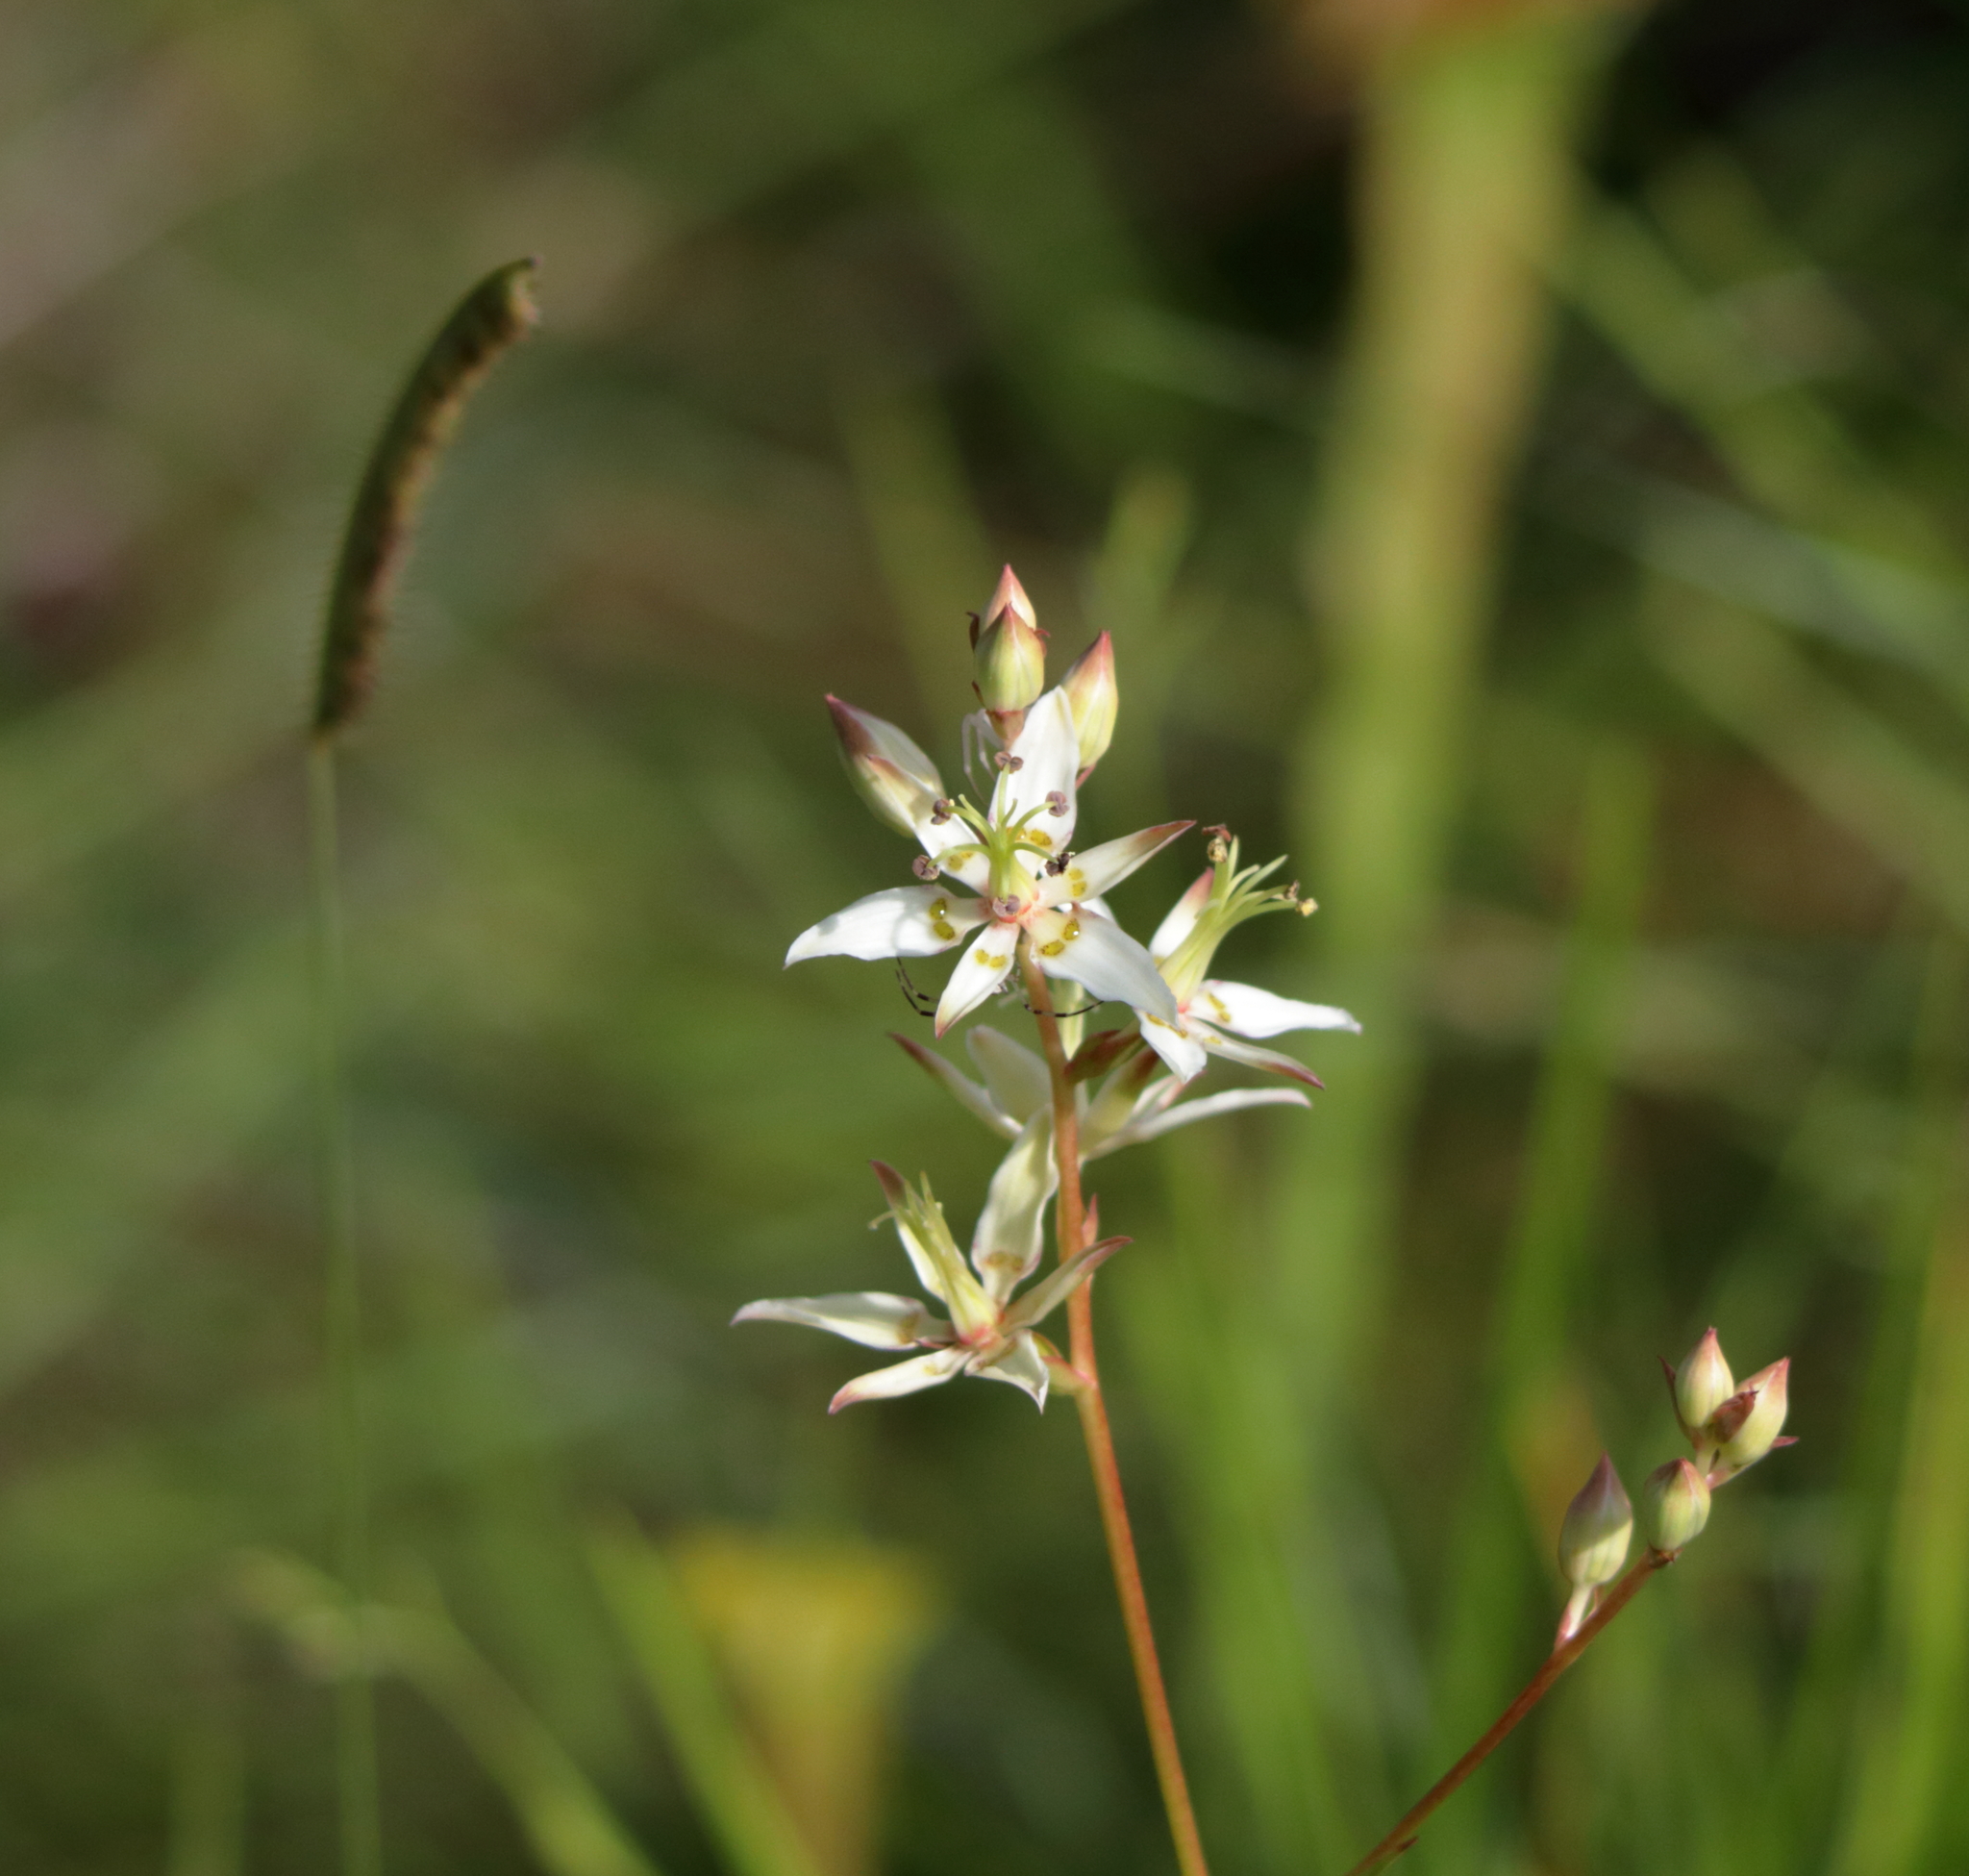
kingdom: Plantae
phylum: Tracheophyta
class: Liliopsida
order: Liliales
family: Melanthiaceae
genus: Zigadenus
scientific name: Zigadenus glaberrimus
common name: Sandbog death camas
